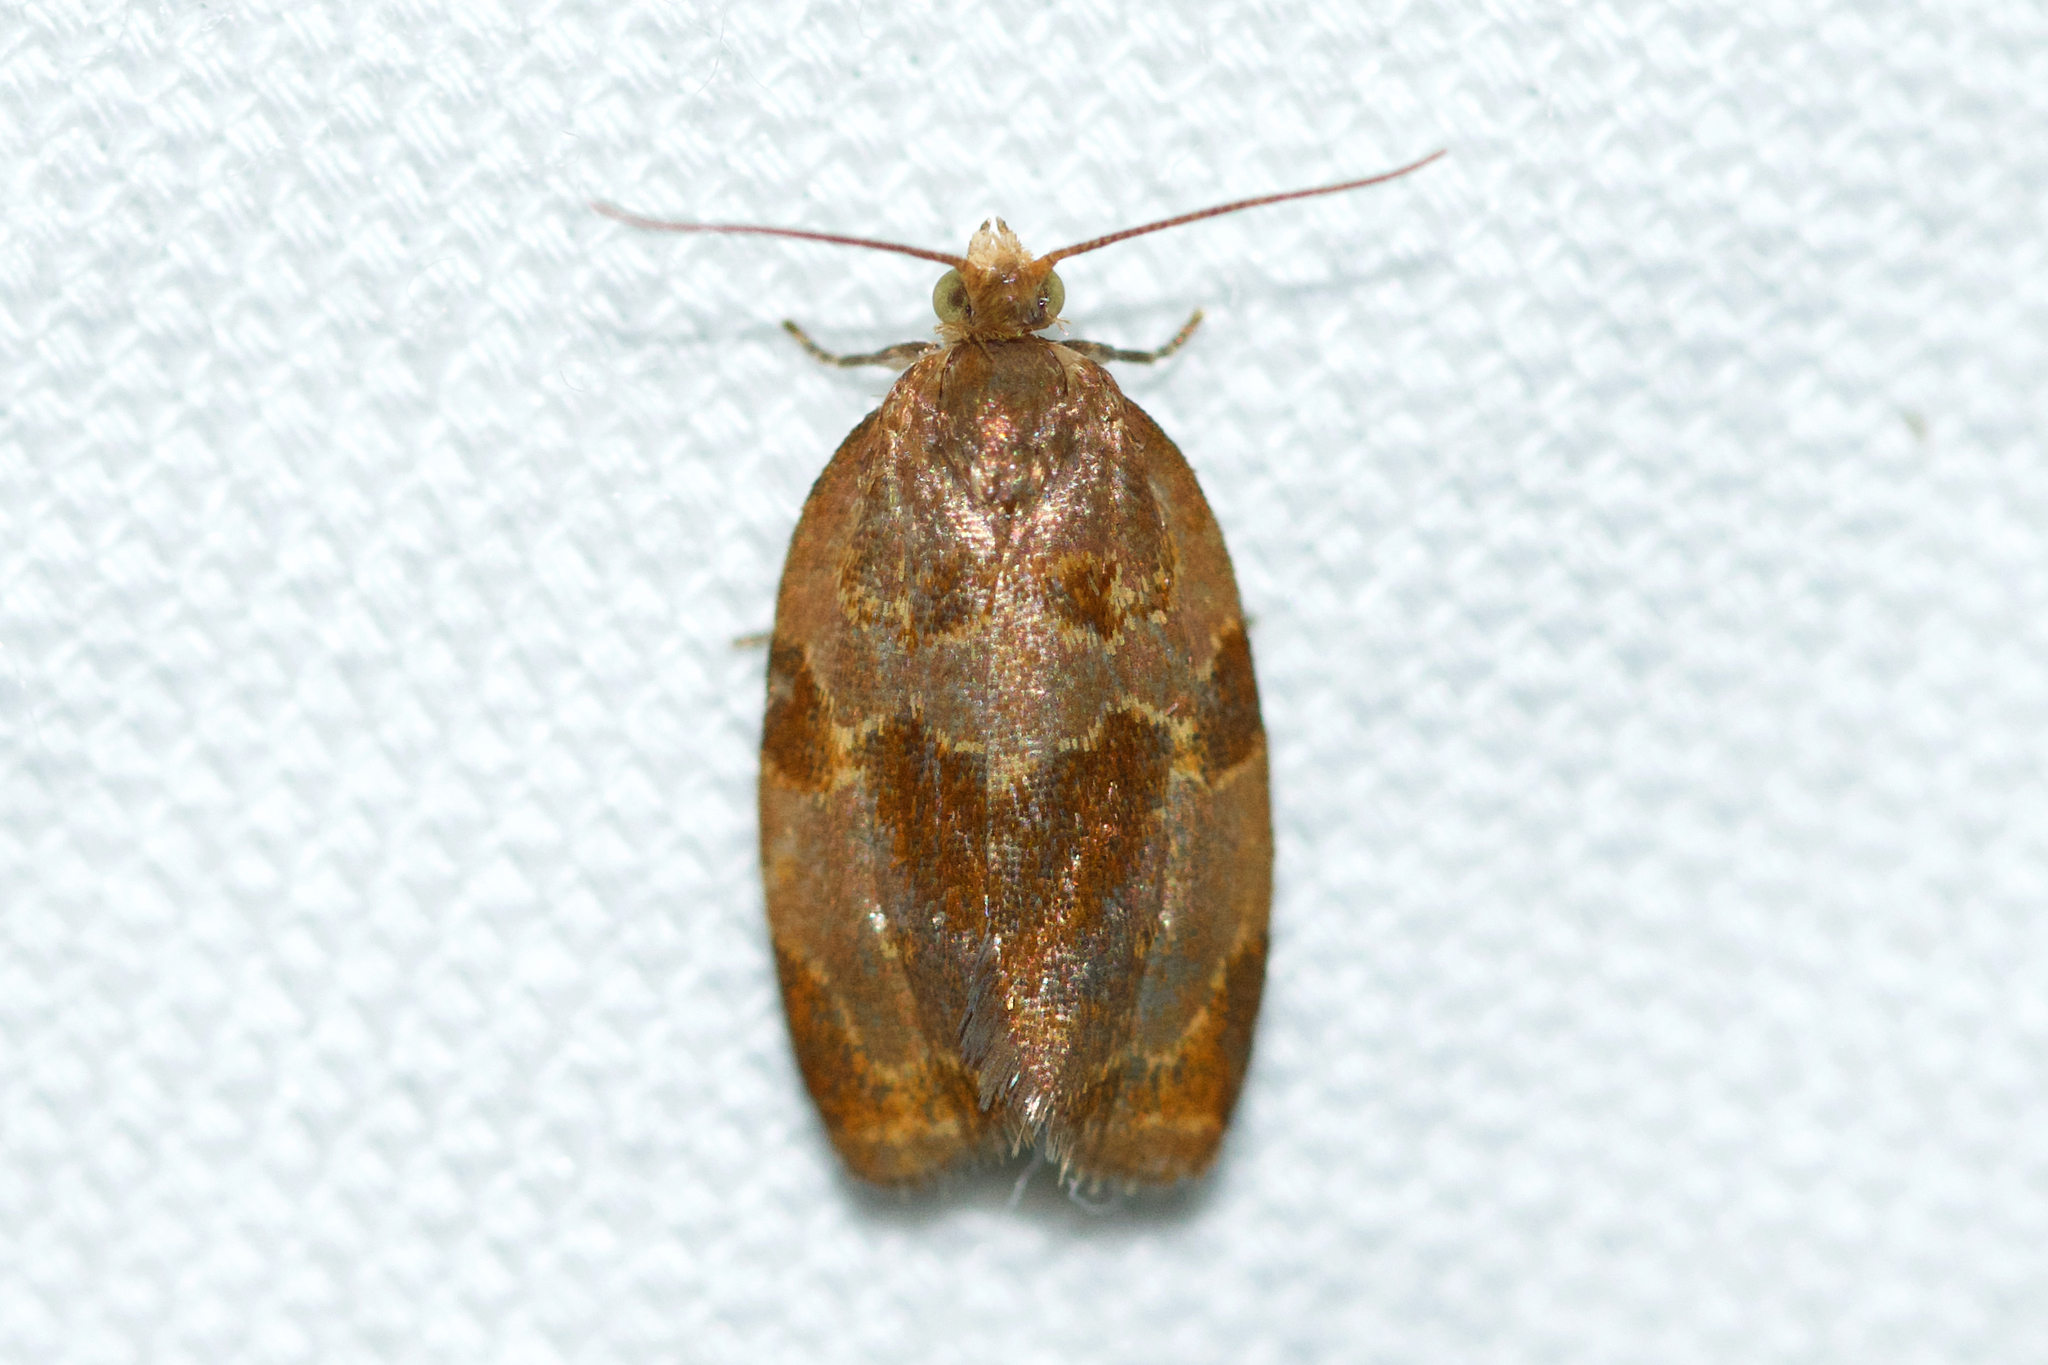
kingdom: Animalia
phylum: Arthropoda
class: Insecta
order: Lepidoptera
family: Tortricidae
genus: Clepsis
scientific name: Clepsis listerana
